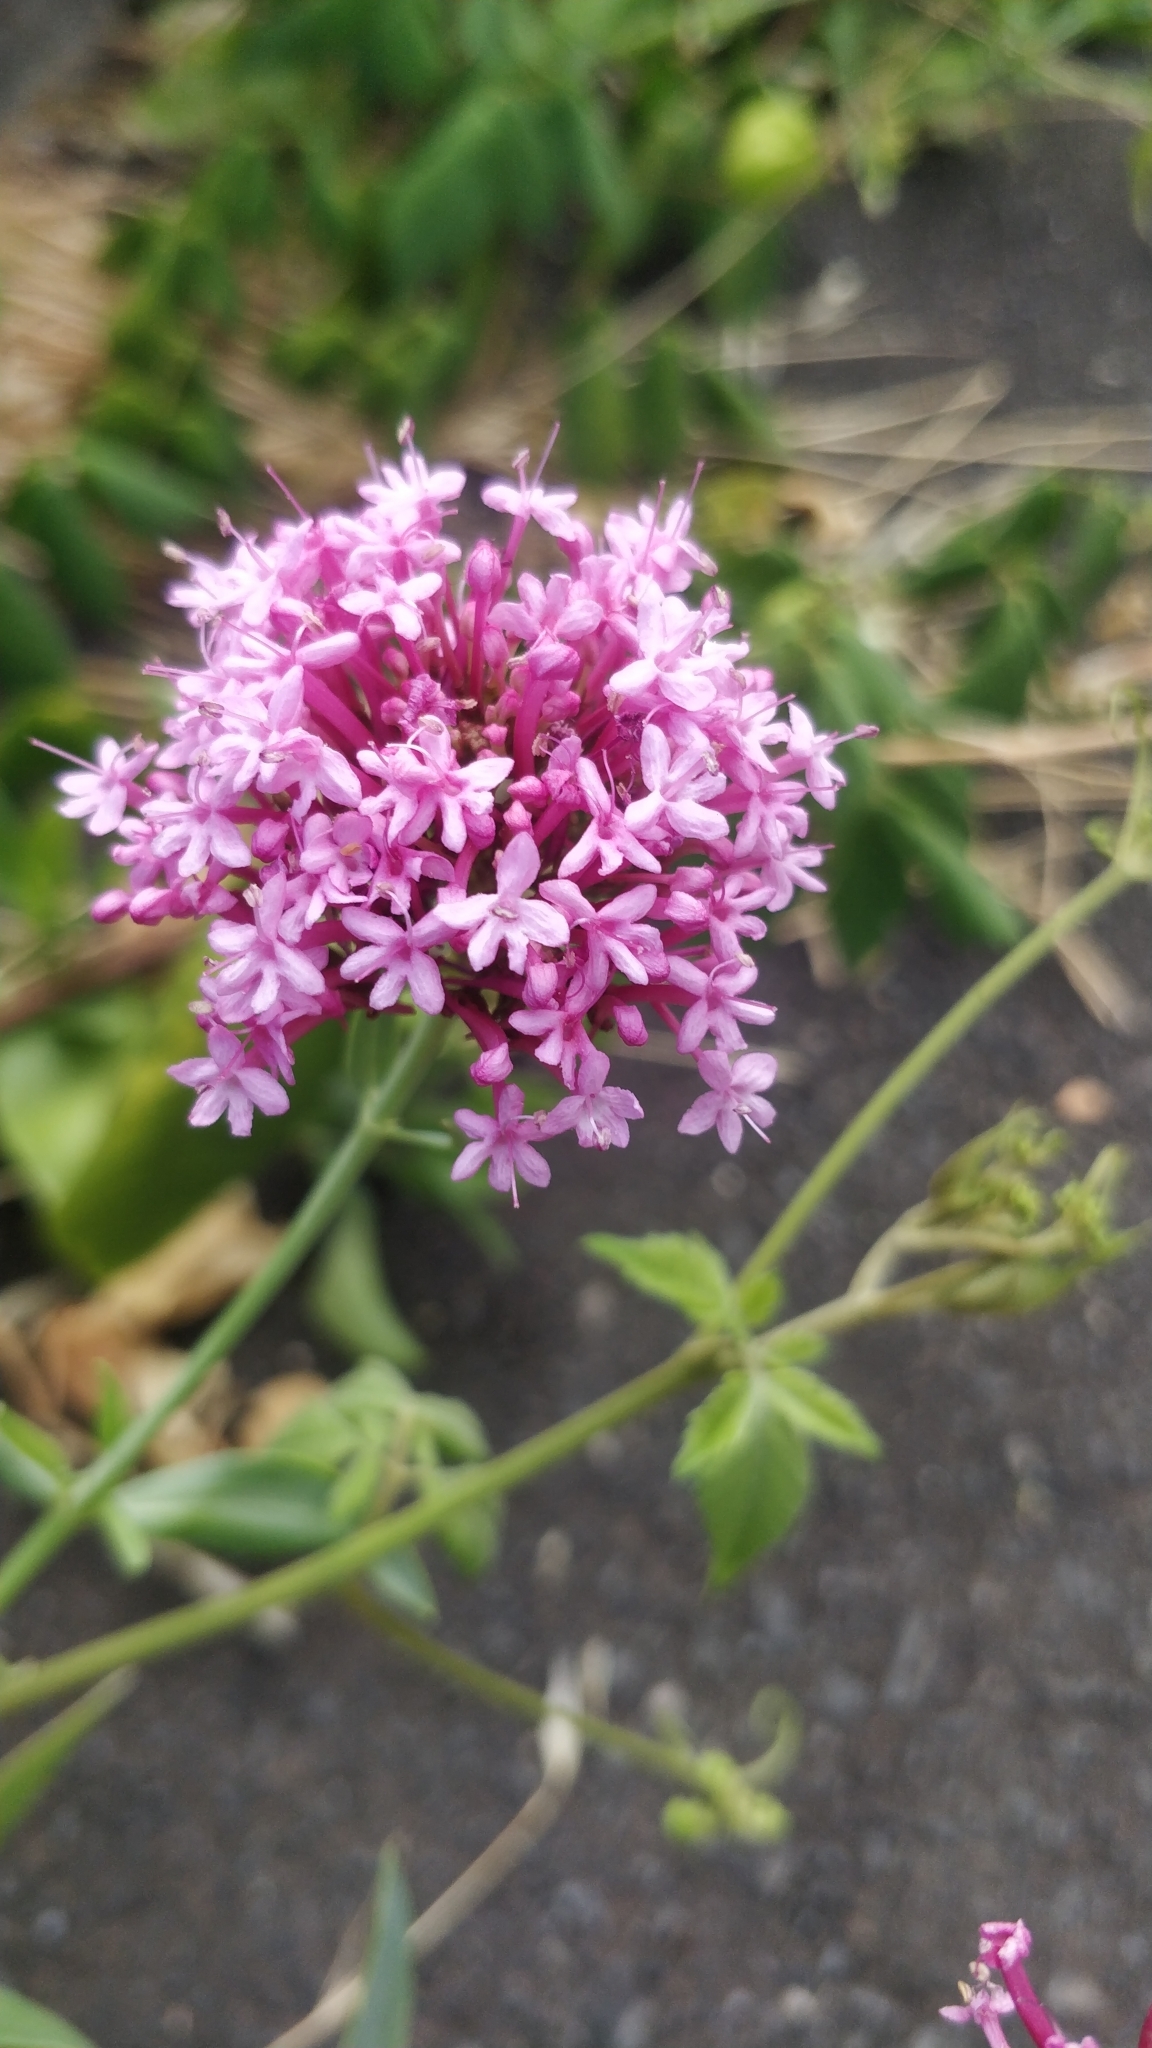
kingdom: Plantae
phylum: Tracheophyta
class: Magnoliopsida
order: Dipsacales
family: Caprifoliaceae
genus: Centranthus
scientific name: Centranthus ruber
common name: Red valerian
